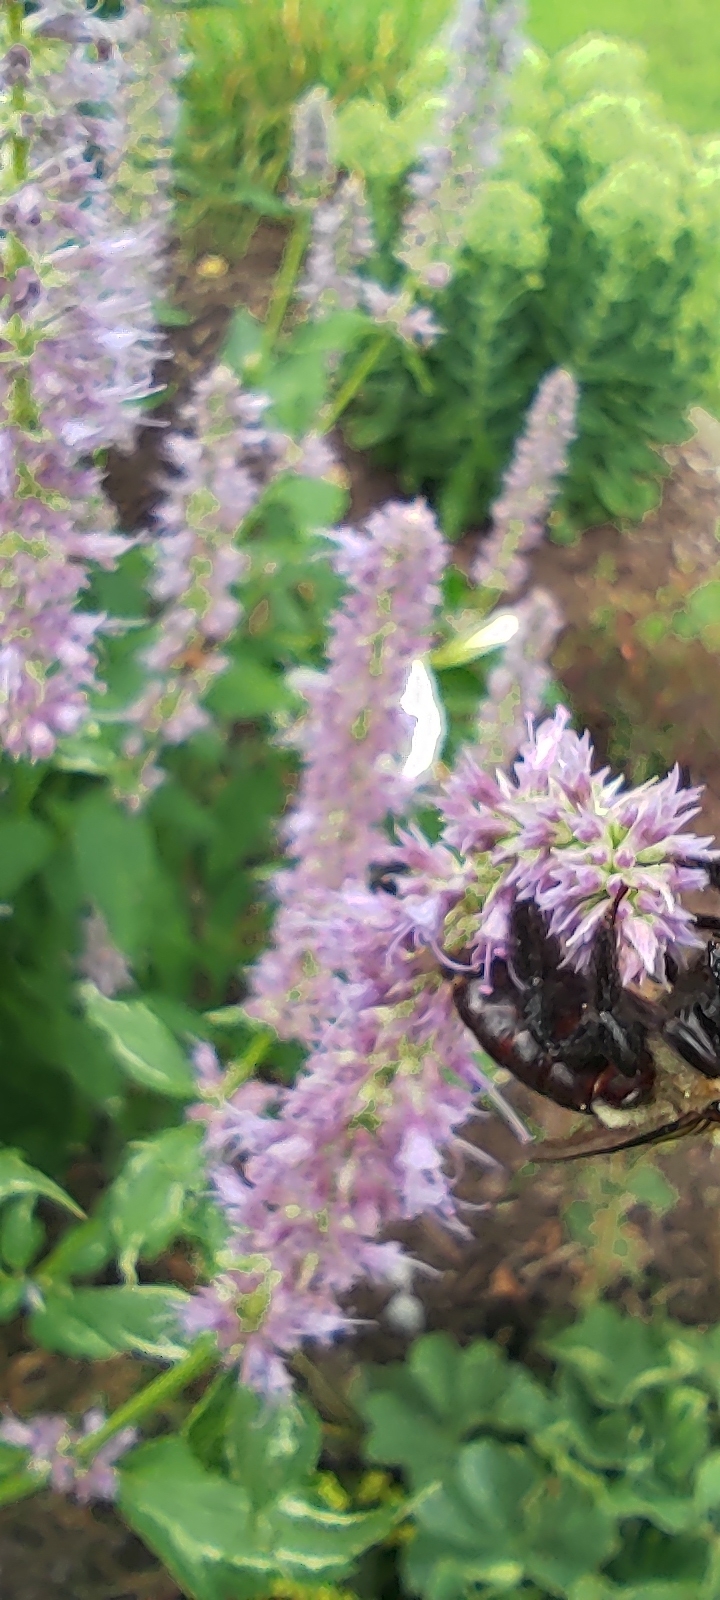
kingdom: Animalia
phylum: Arthropoda
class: Insecta
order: Hymenoptera
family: Apidae
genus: Xylocopa
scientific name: Xylocopa virginica
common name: Carpenter bee
